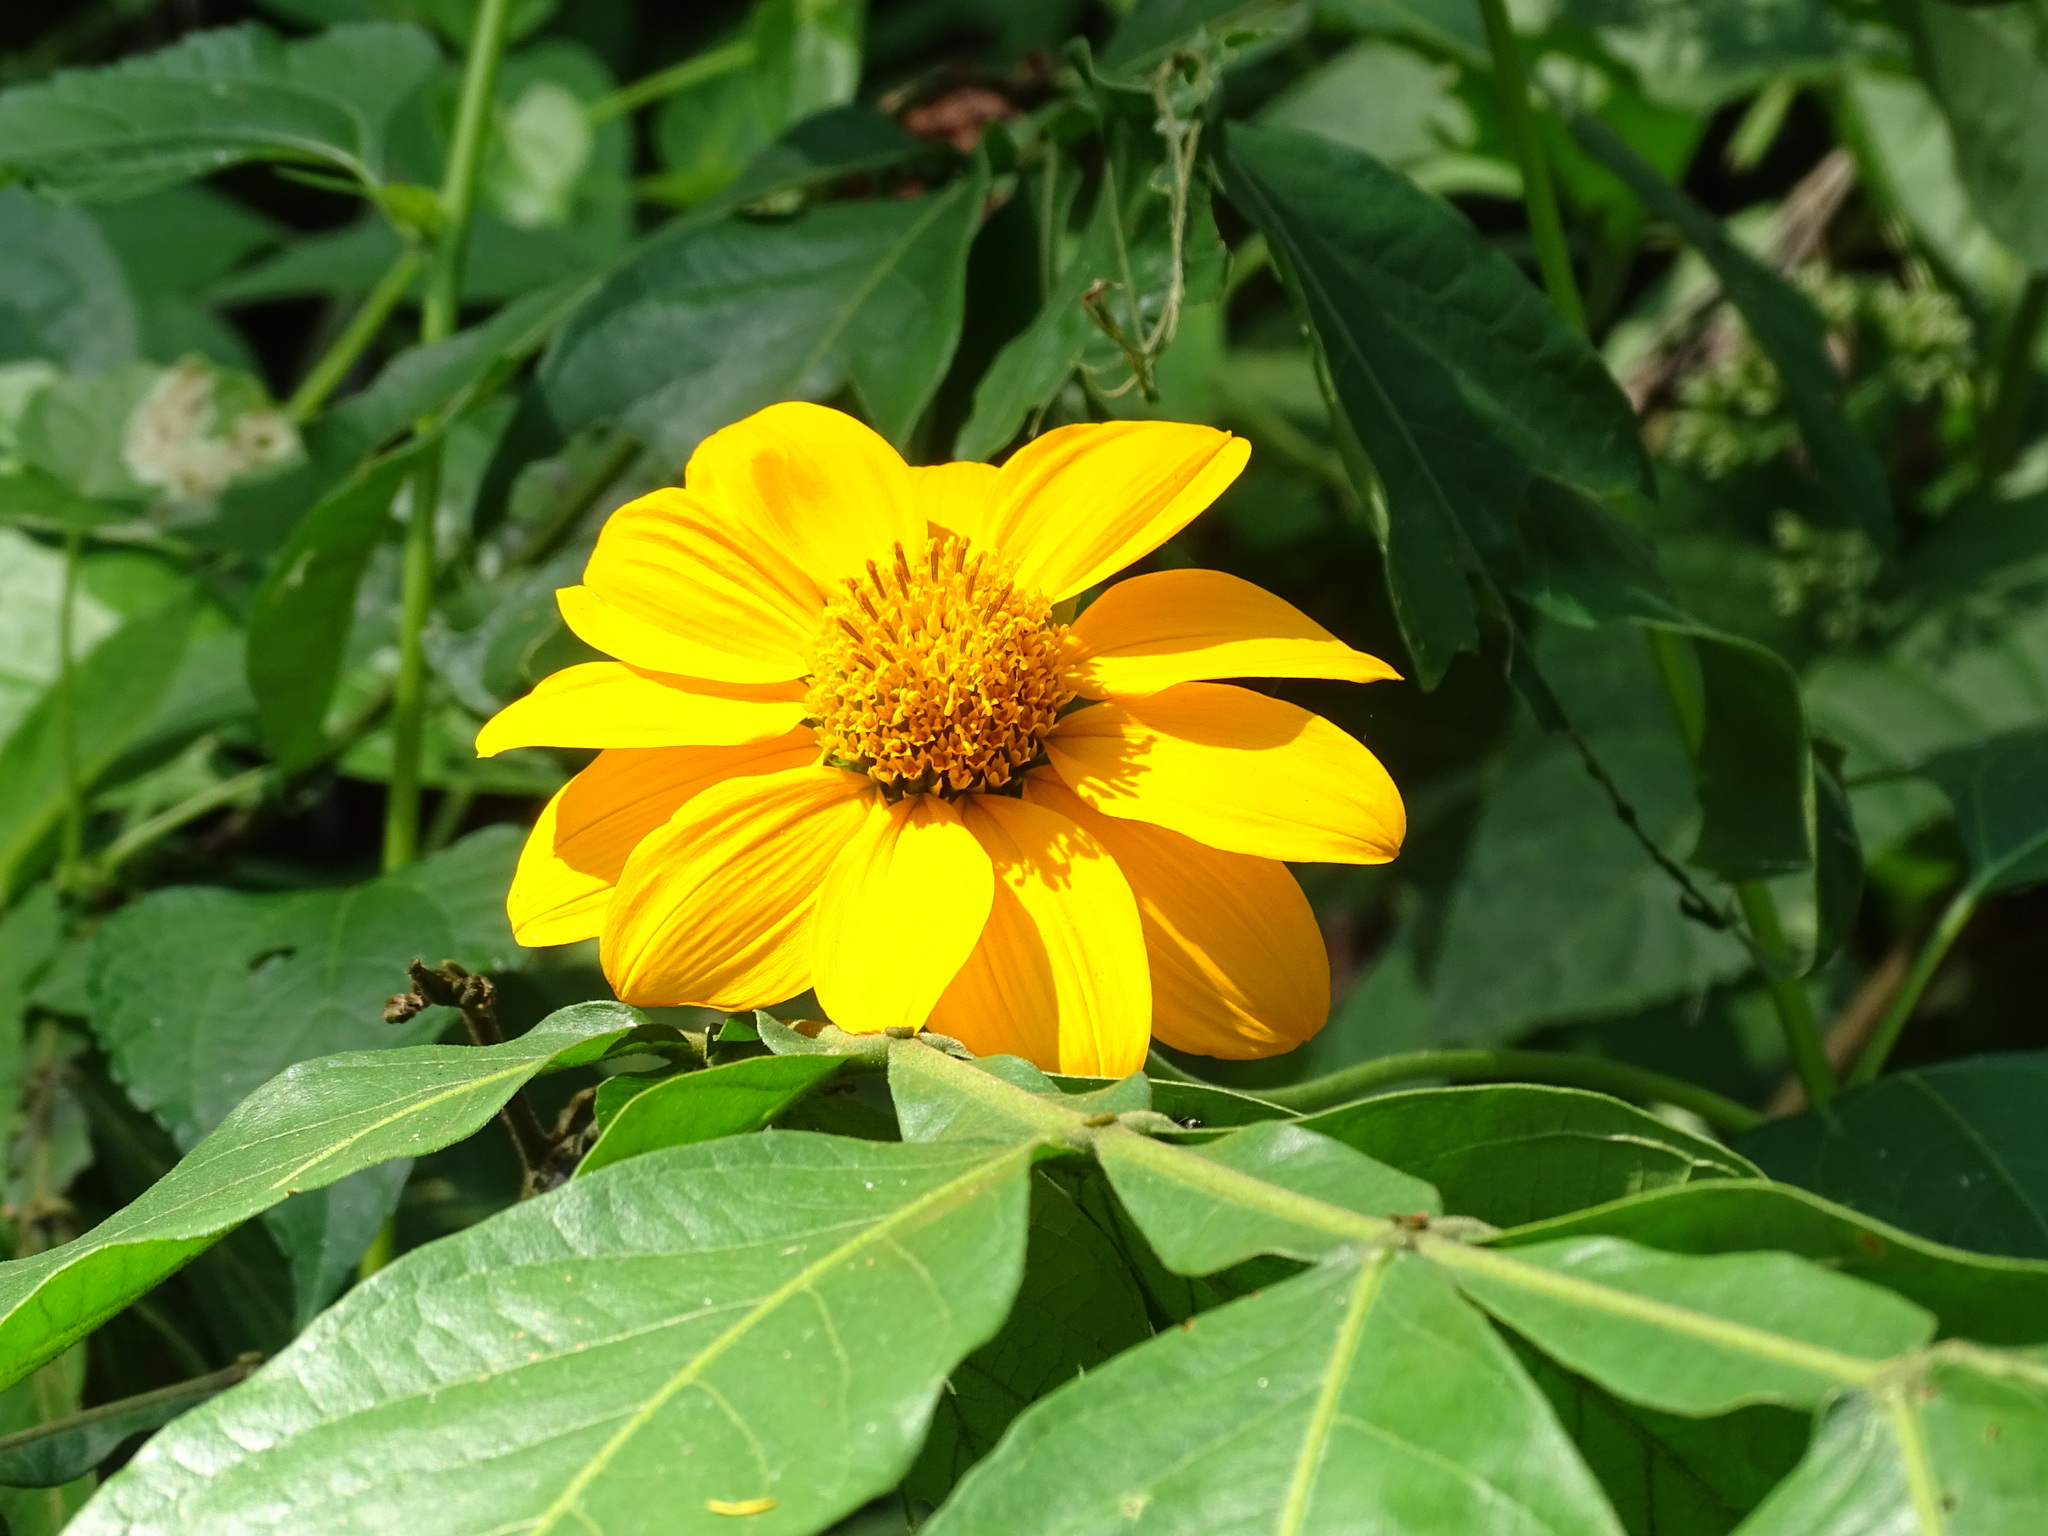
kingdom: Plantae
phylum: Tracheophyta
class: Magnoliopsida
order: Asterales
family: Asteraceae
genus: Tithonia
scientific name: Tithonia rotundifolia
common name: Sunflower
